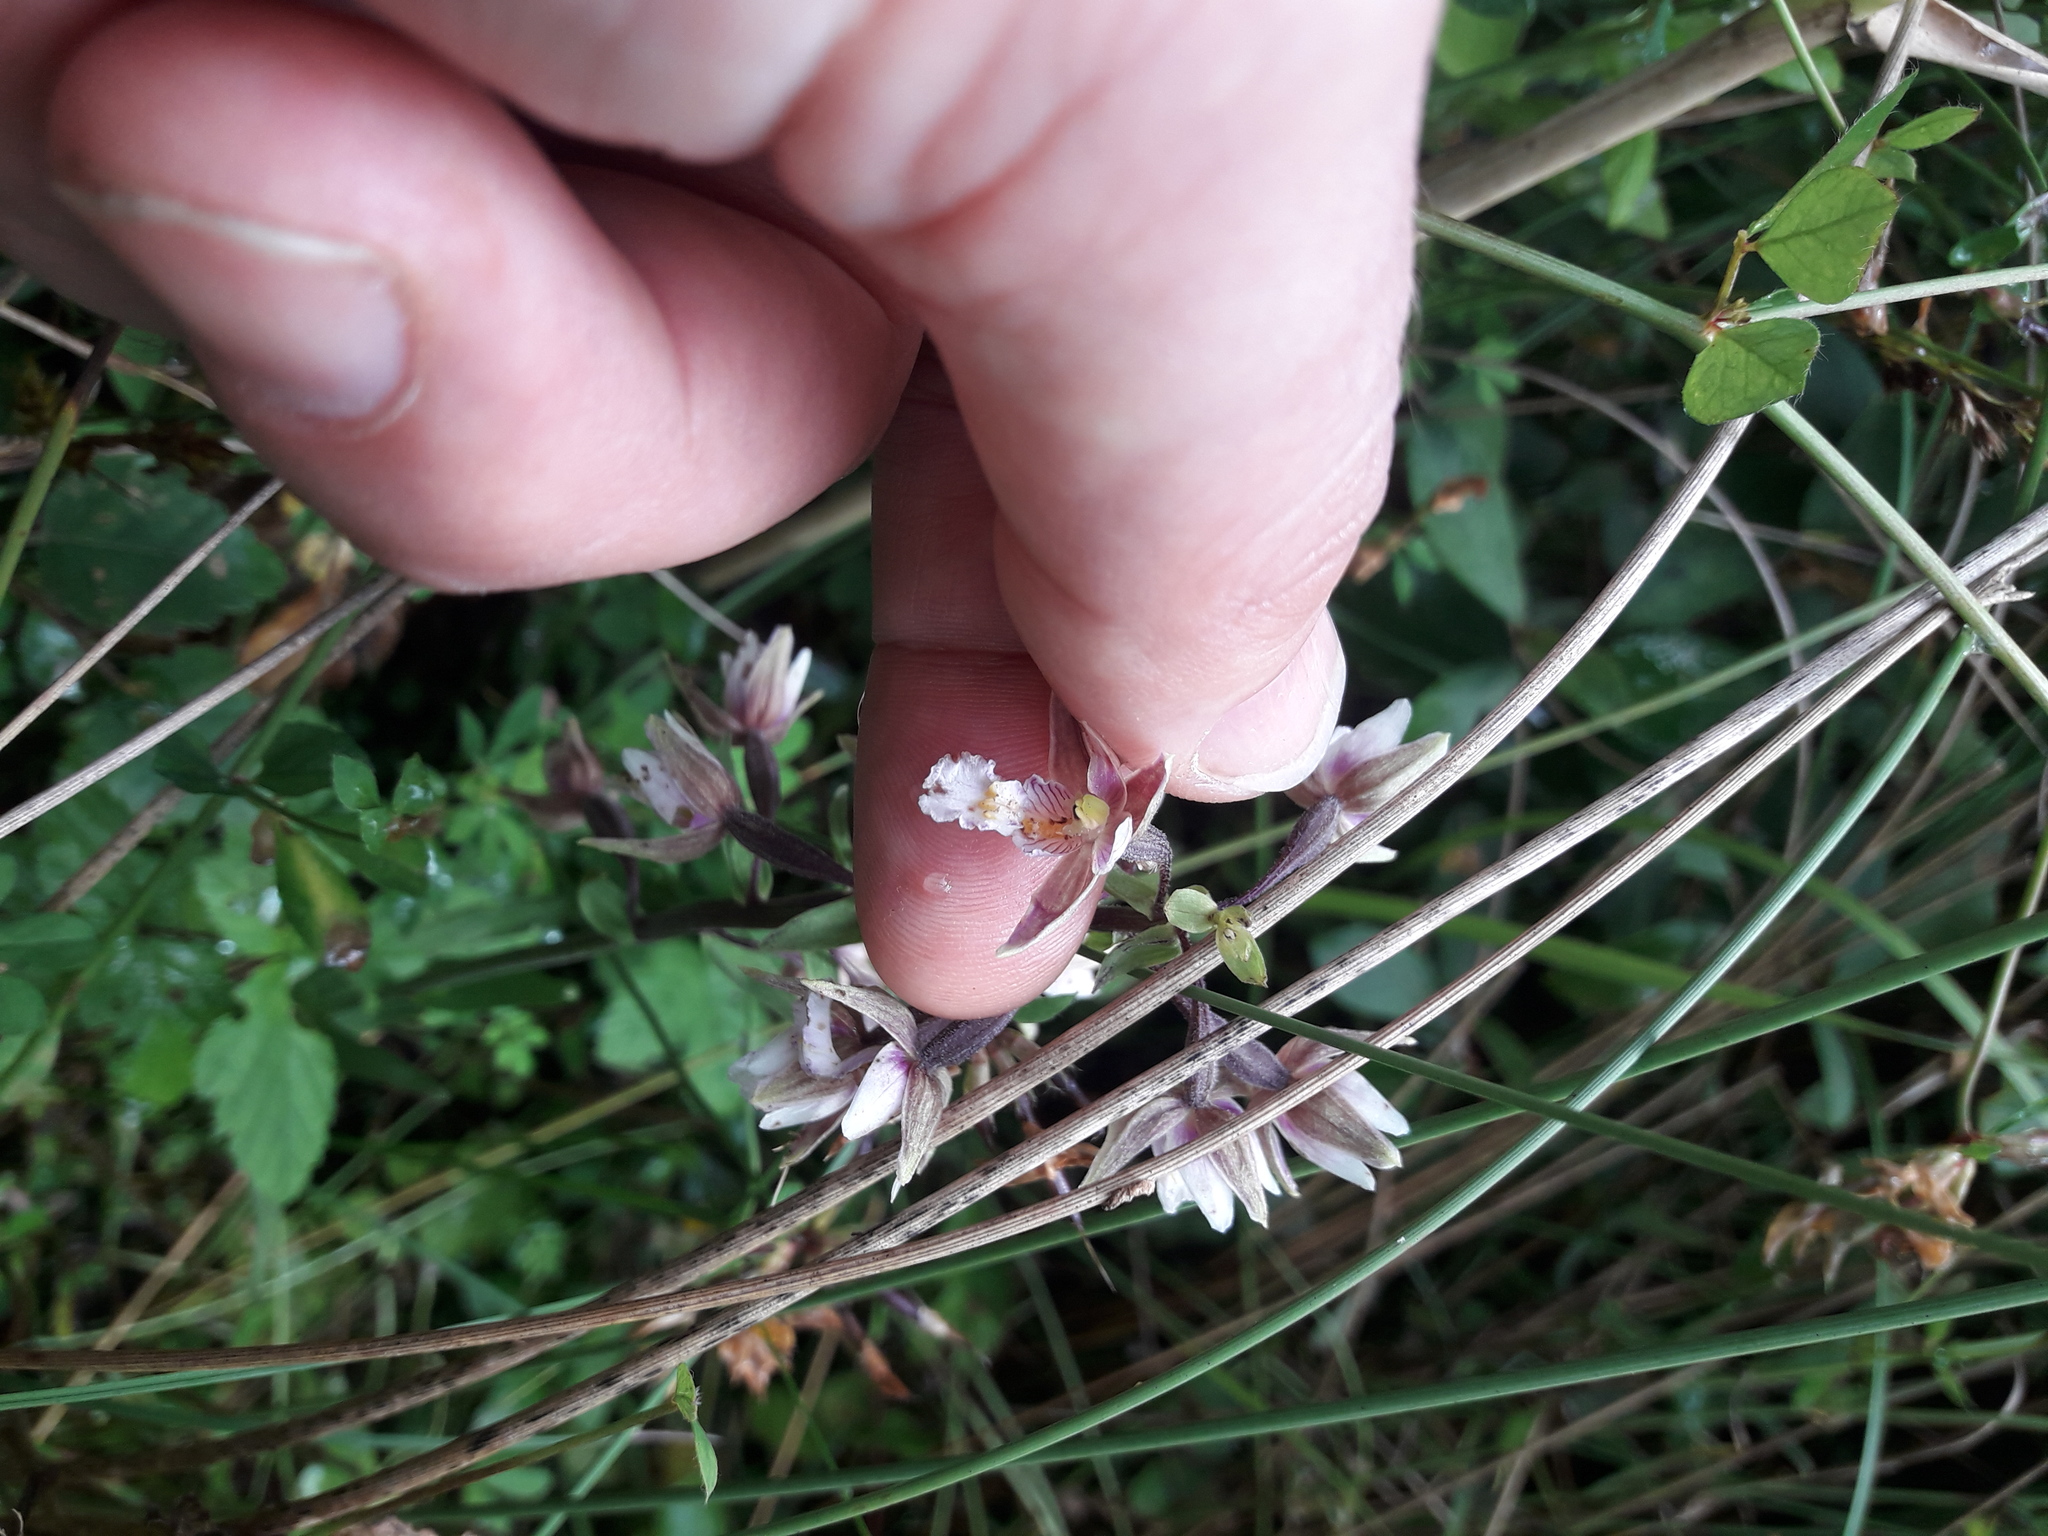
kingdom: Plantae
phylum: Tracheophyta
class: Liliopsida
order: Asparagales
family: Orchidaceae
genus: Epipactis
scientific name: Epipactis palustris
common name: Marsh helleborine
